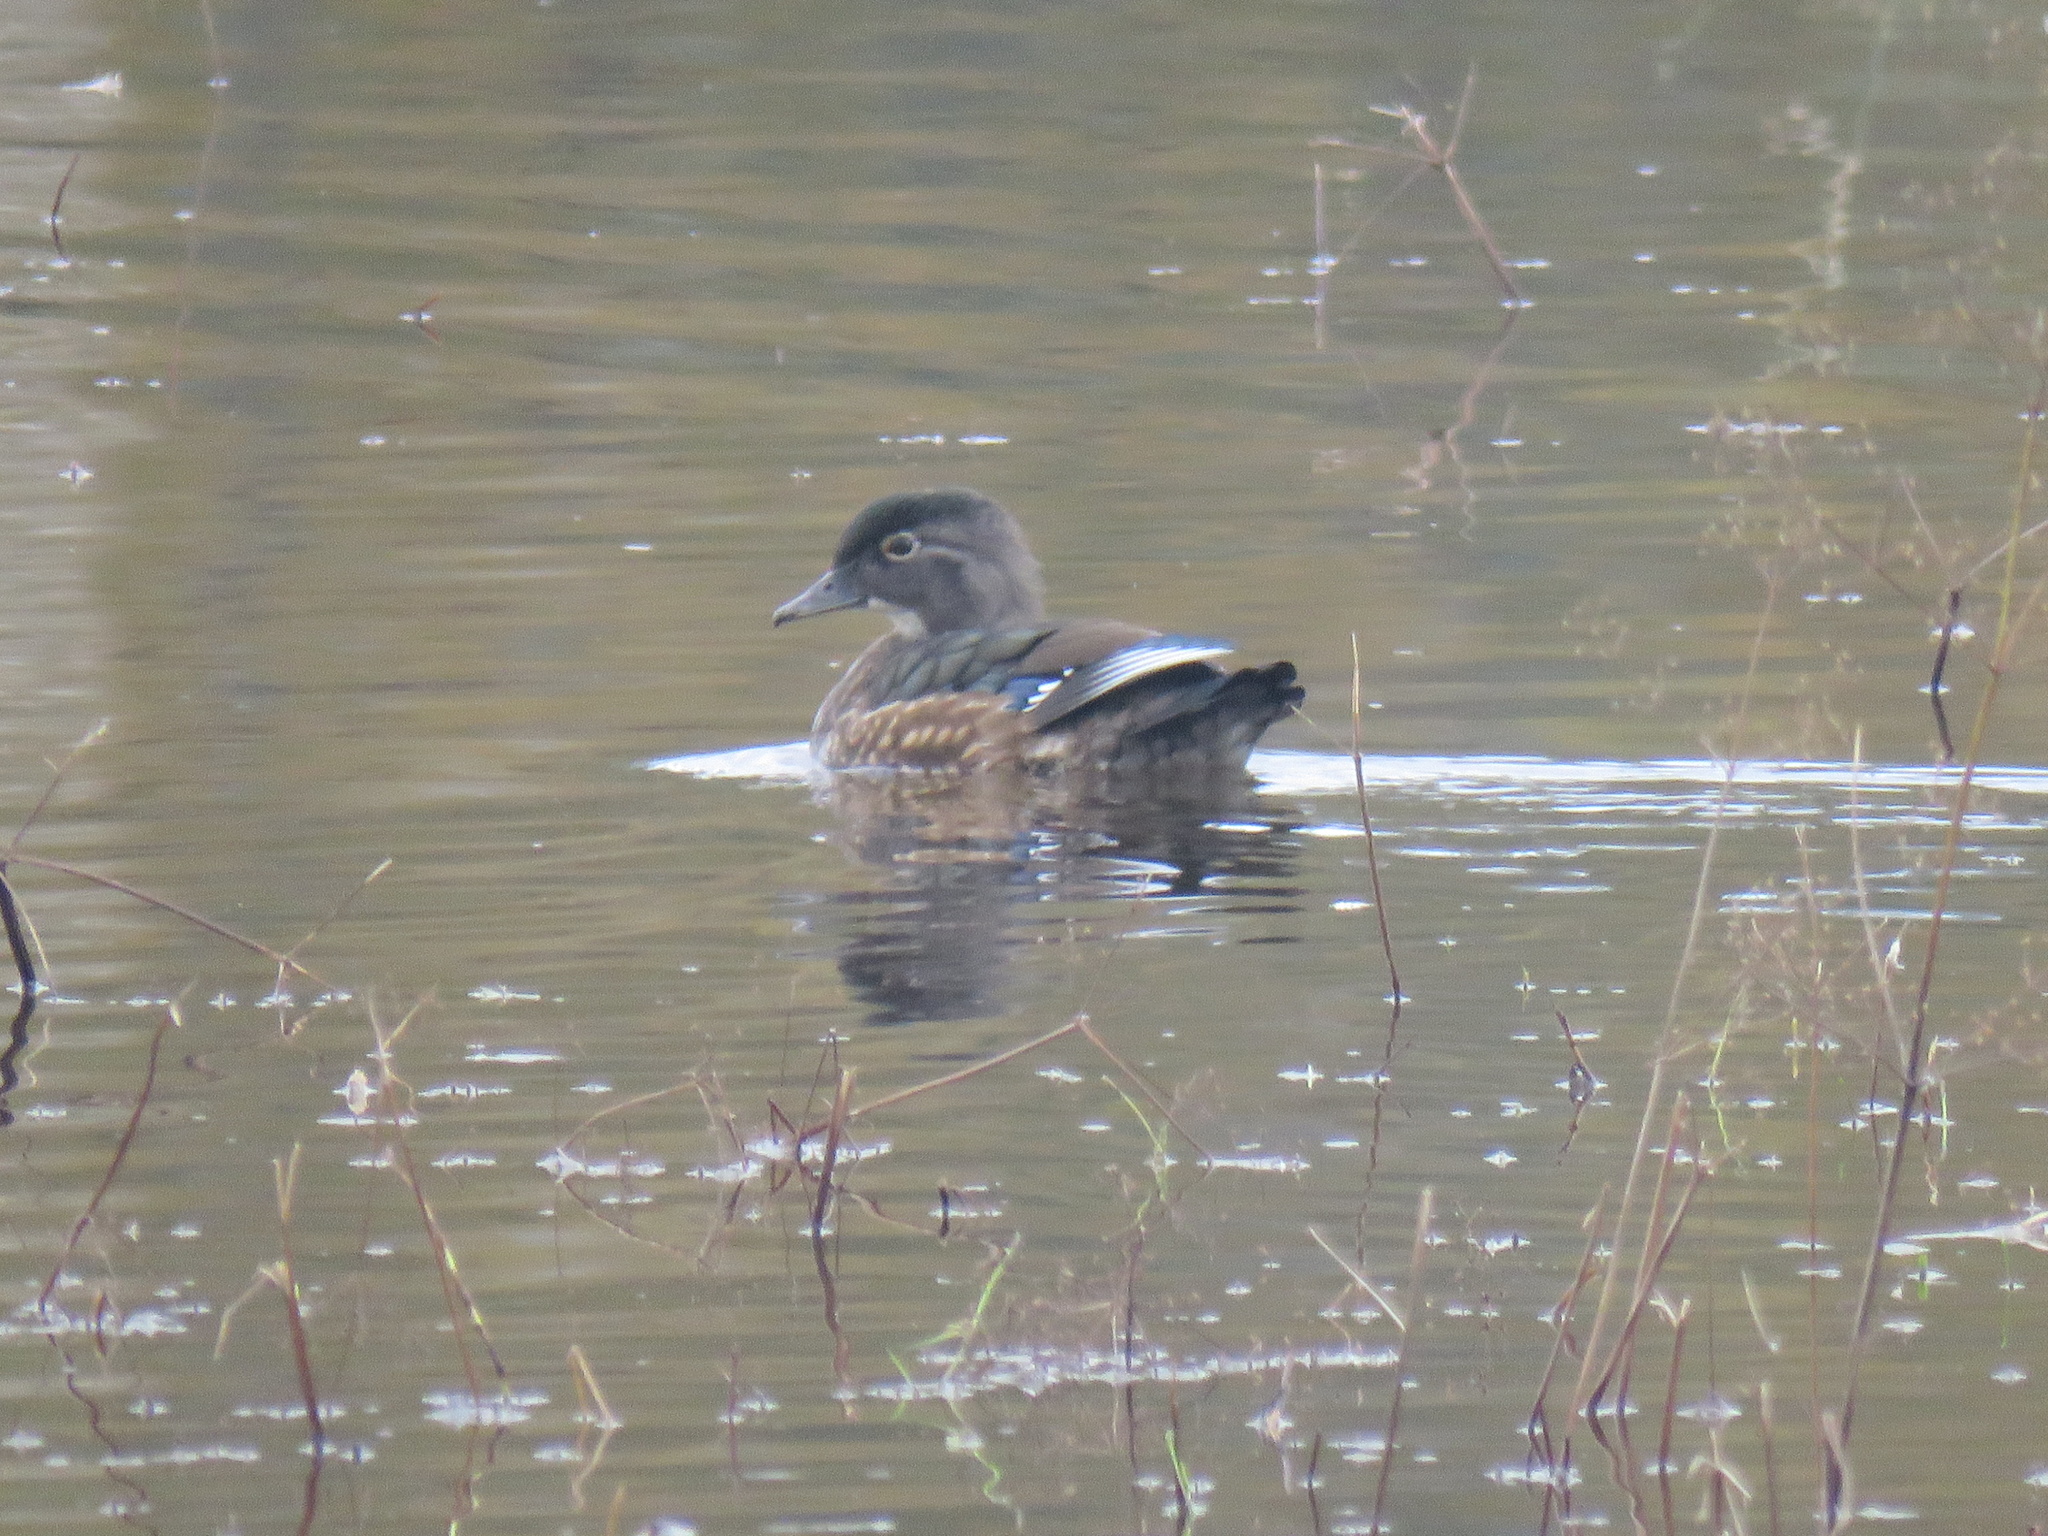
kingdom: Animalia
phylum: Chordata
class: Aves
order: Anseriformes
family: Anatidae
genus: Aix
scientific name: Aix sponsa
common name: Wood duck
